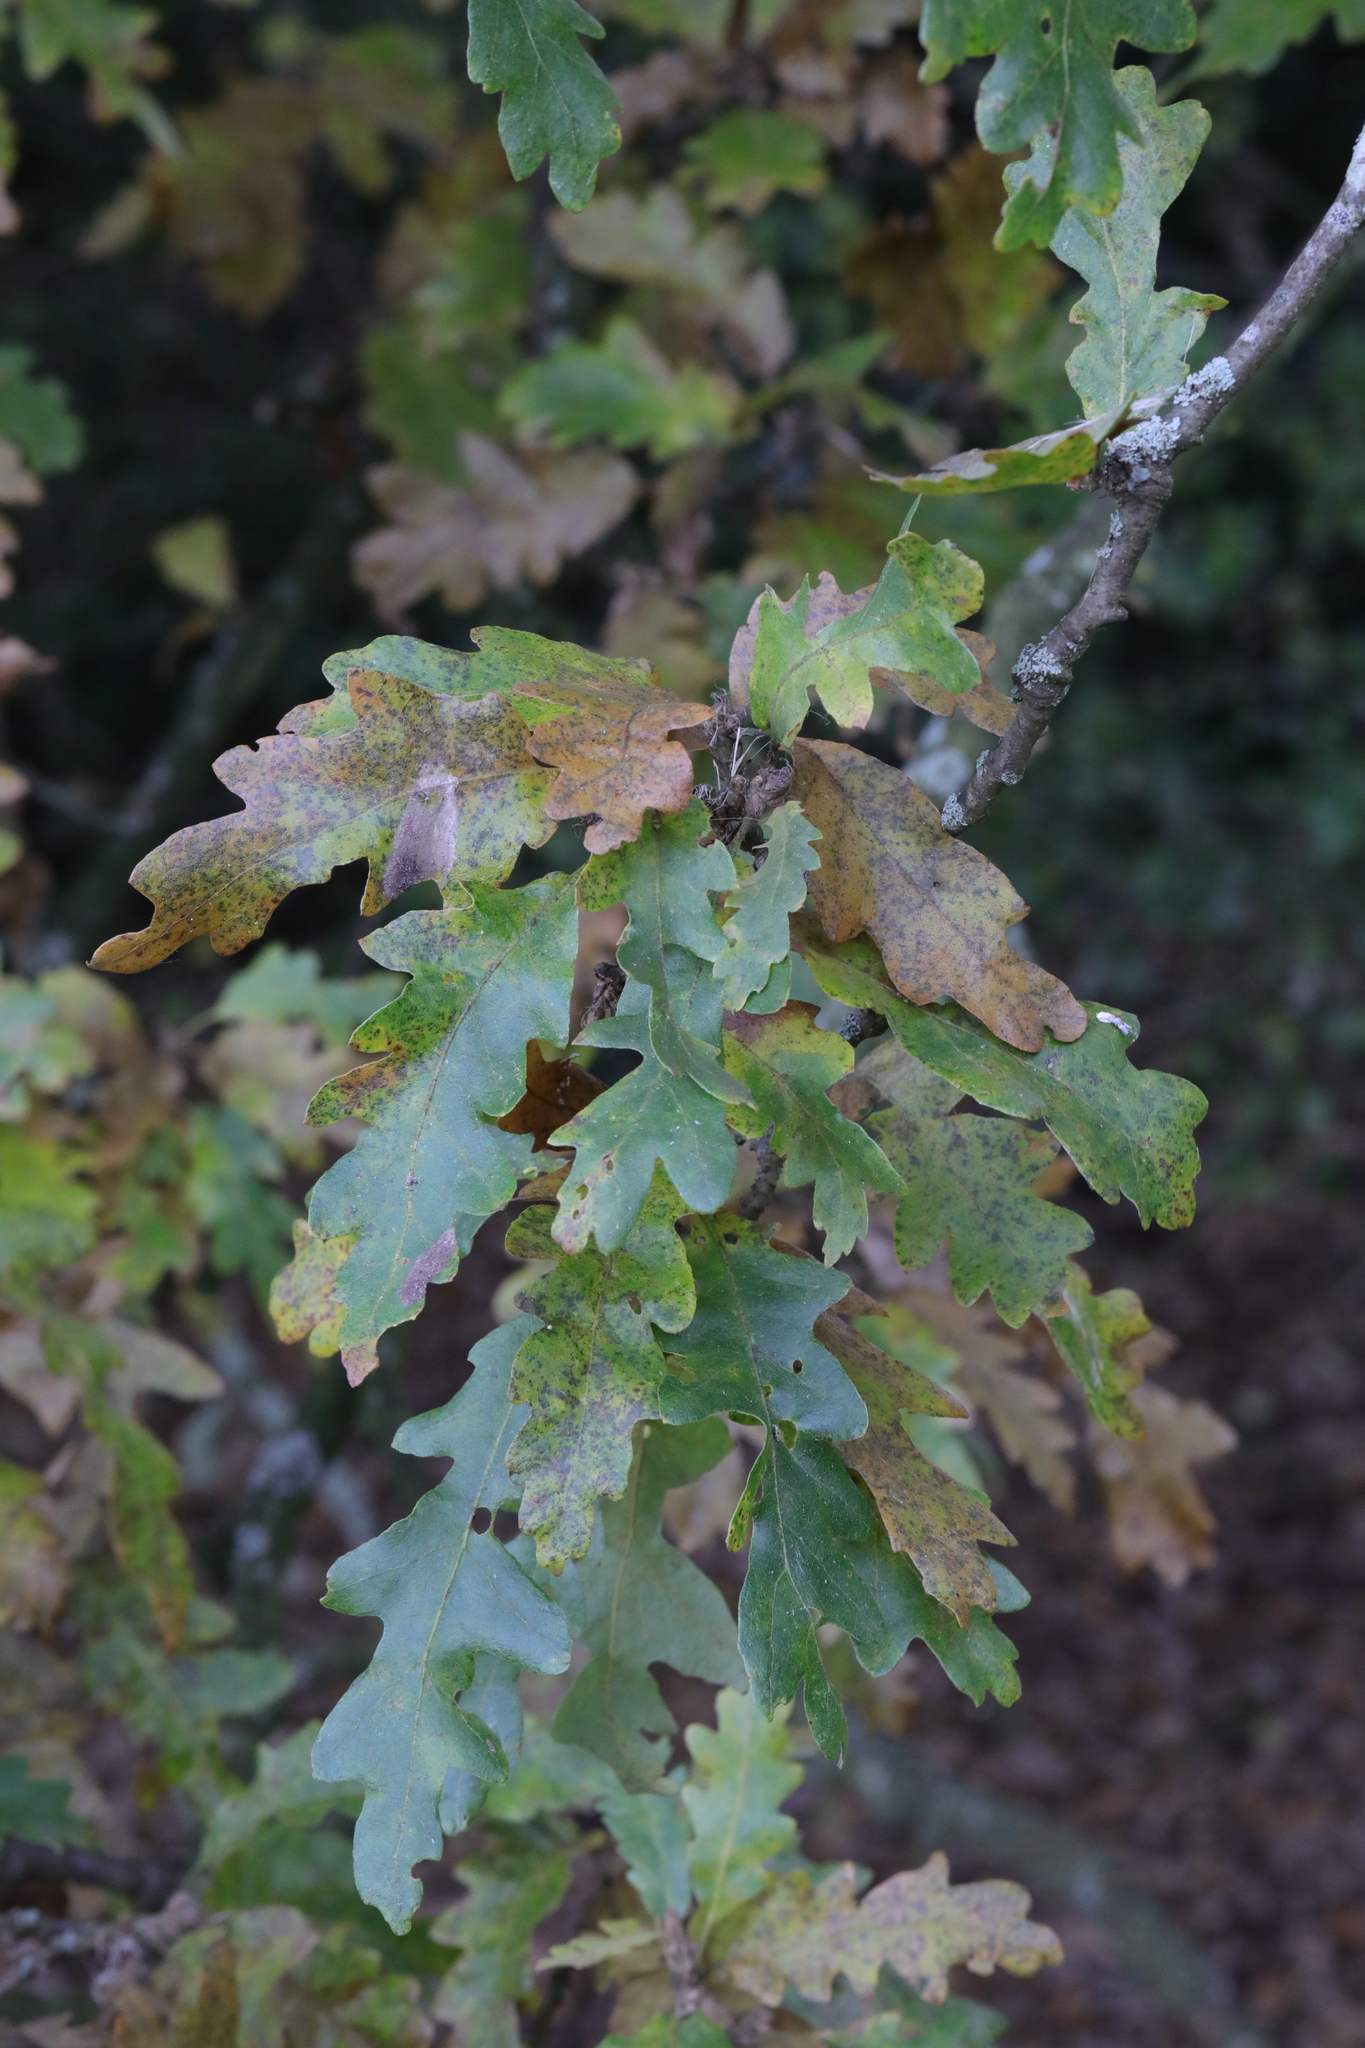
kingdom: Plantae
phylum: Tracheophyta
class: Magnoliopsida
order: Fagales
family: Fagaceae
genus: Quercus
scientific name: Quercus cerris
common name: Turkey oak
